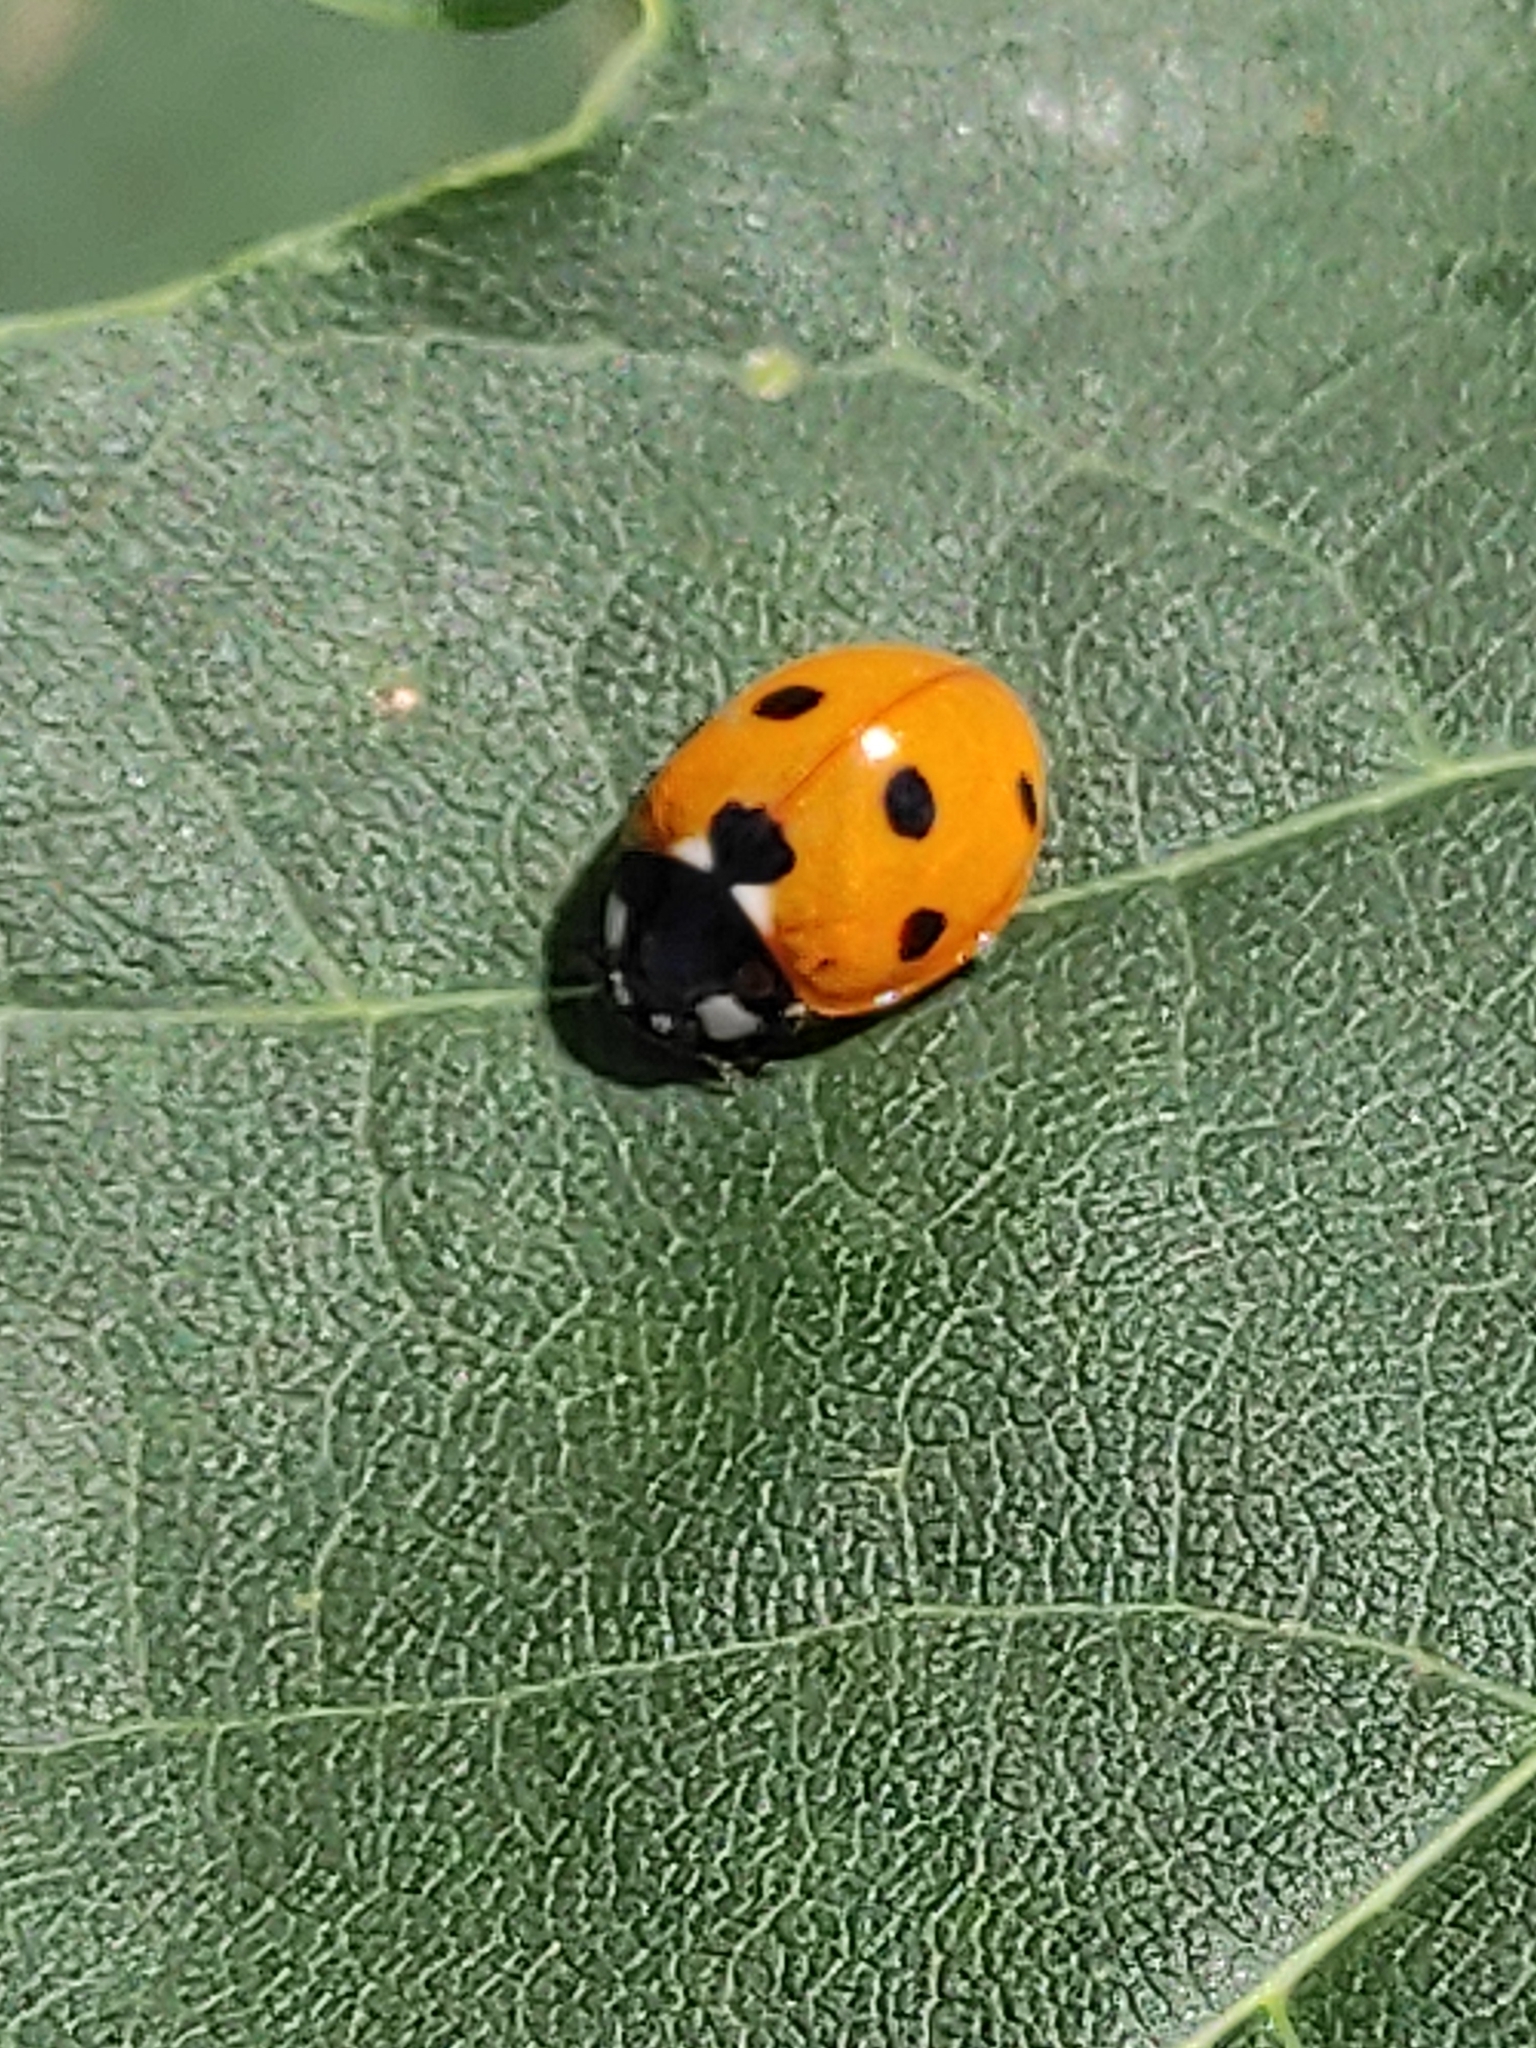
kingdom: Animalia
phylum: Arthropoda
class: Insecta
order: Coleoptera
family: Coccinellidae
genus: Coccinella
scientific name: Coccinella septempunctata
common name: Sevenspotted lady beetle
